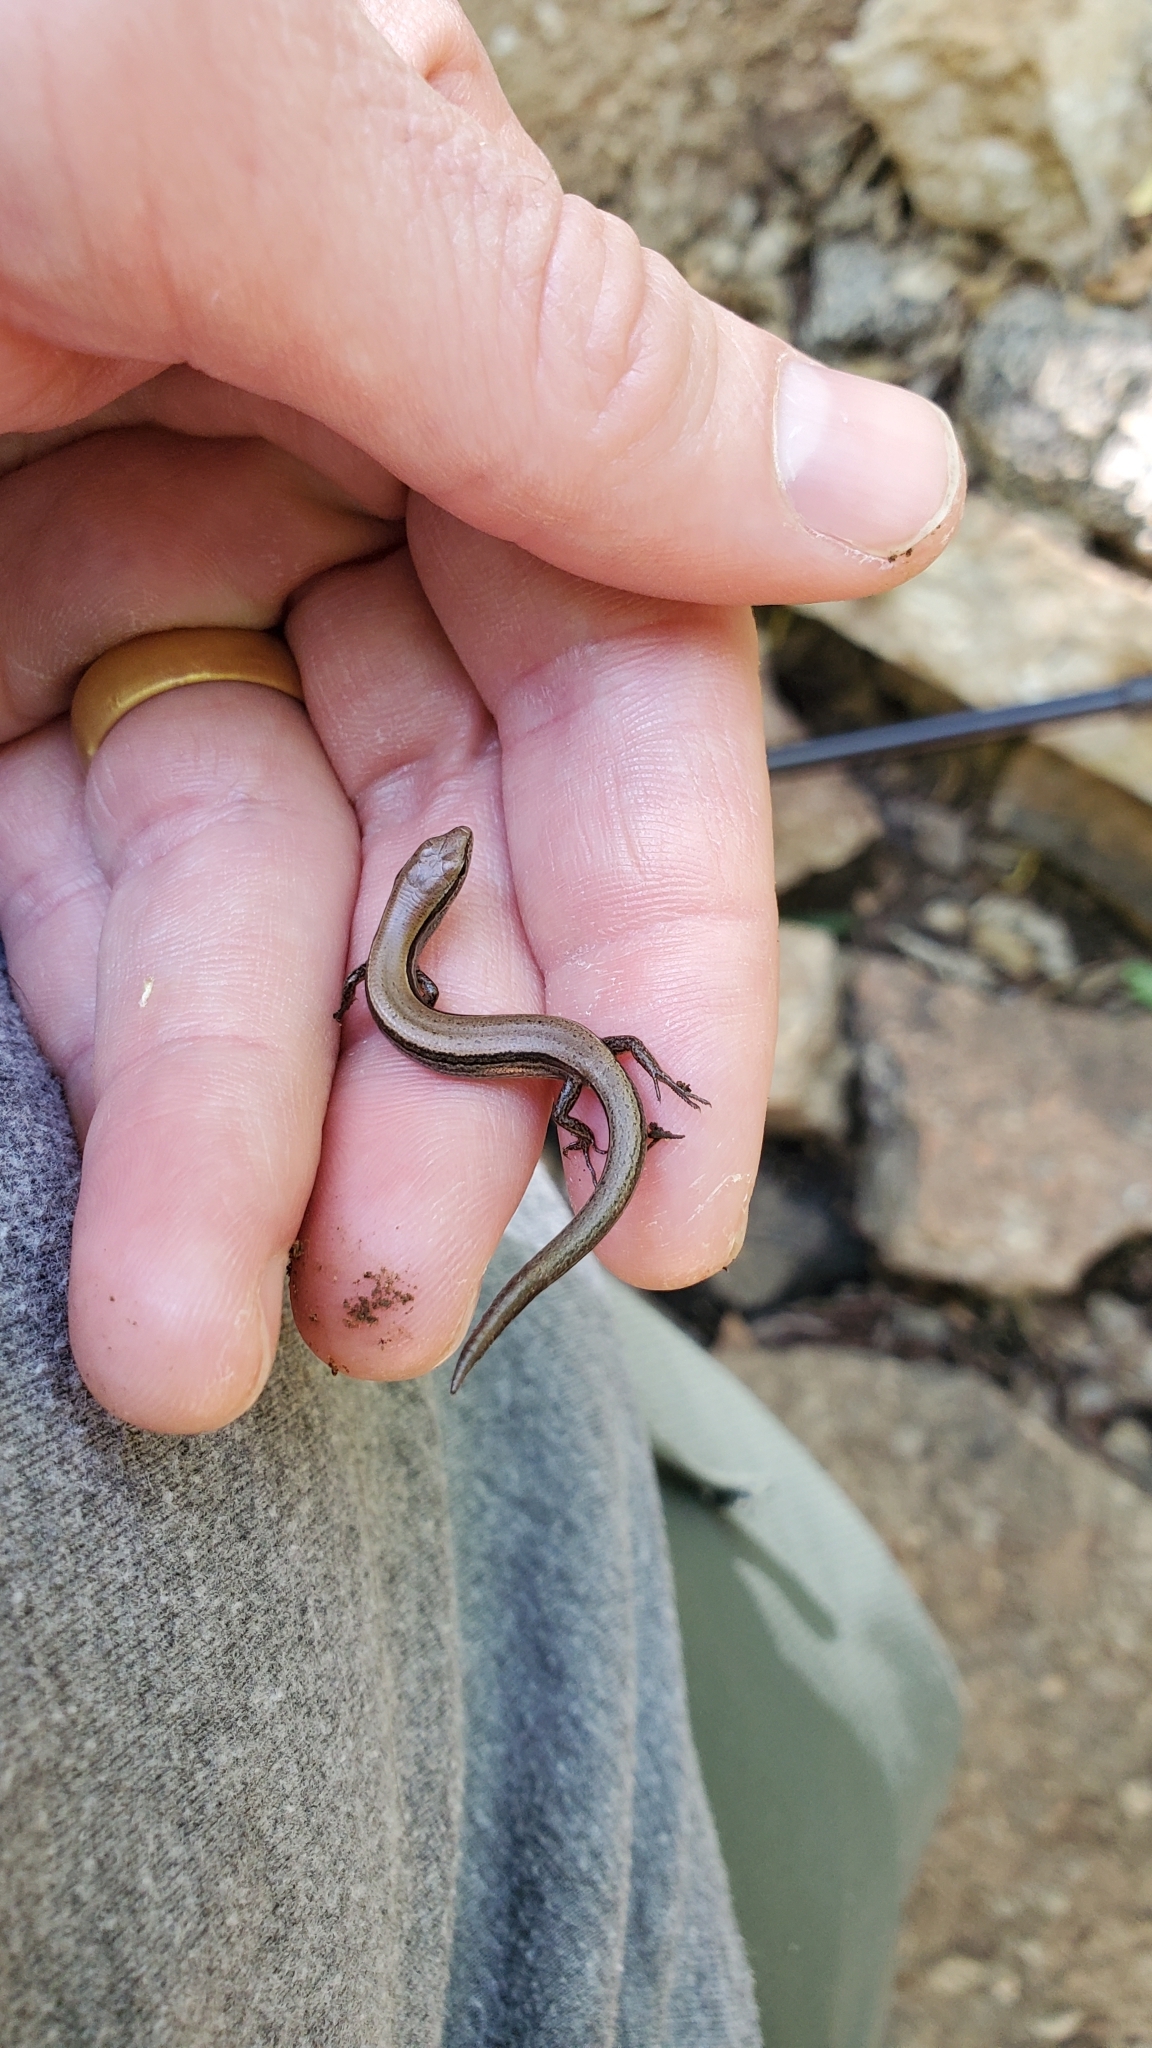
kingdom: Animalia
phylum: Chordata
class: Squamata
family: Scincidae
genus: Scincella
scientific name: Scincella lateralis
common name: Ground skink
